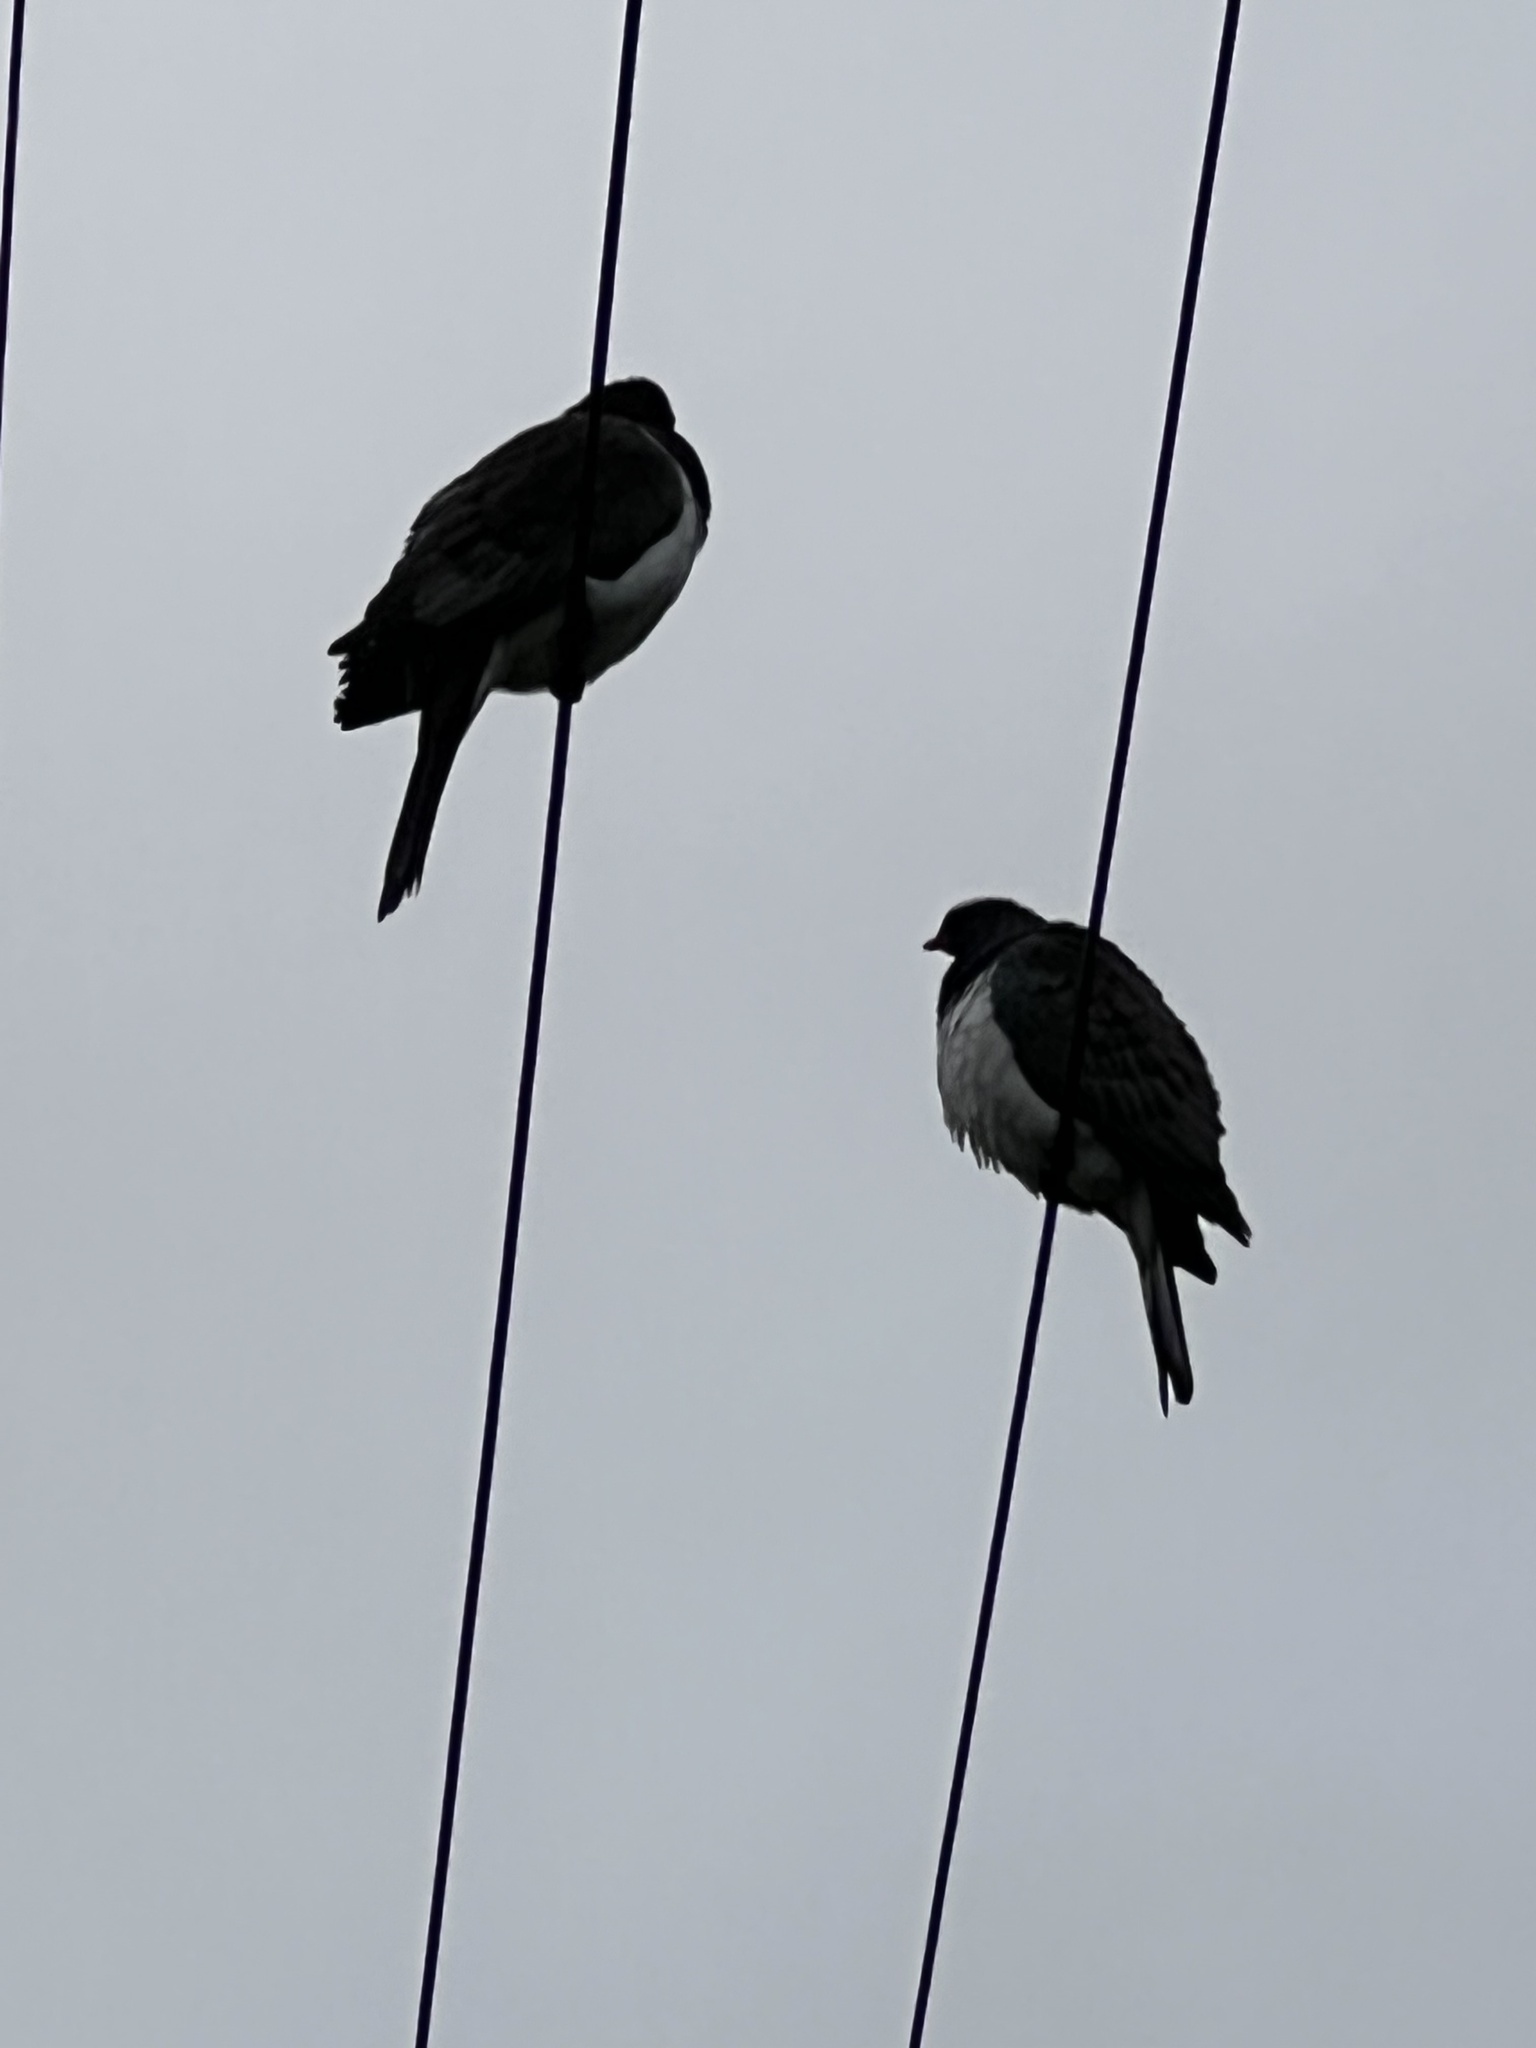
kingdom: Animalia
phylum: Chordata
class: Aves
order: Columbiformes
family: Columbidae
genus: Hemiphaga
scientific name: Hemiphaga novaeseelandiae
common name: New zealand pigeon
